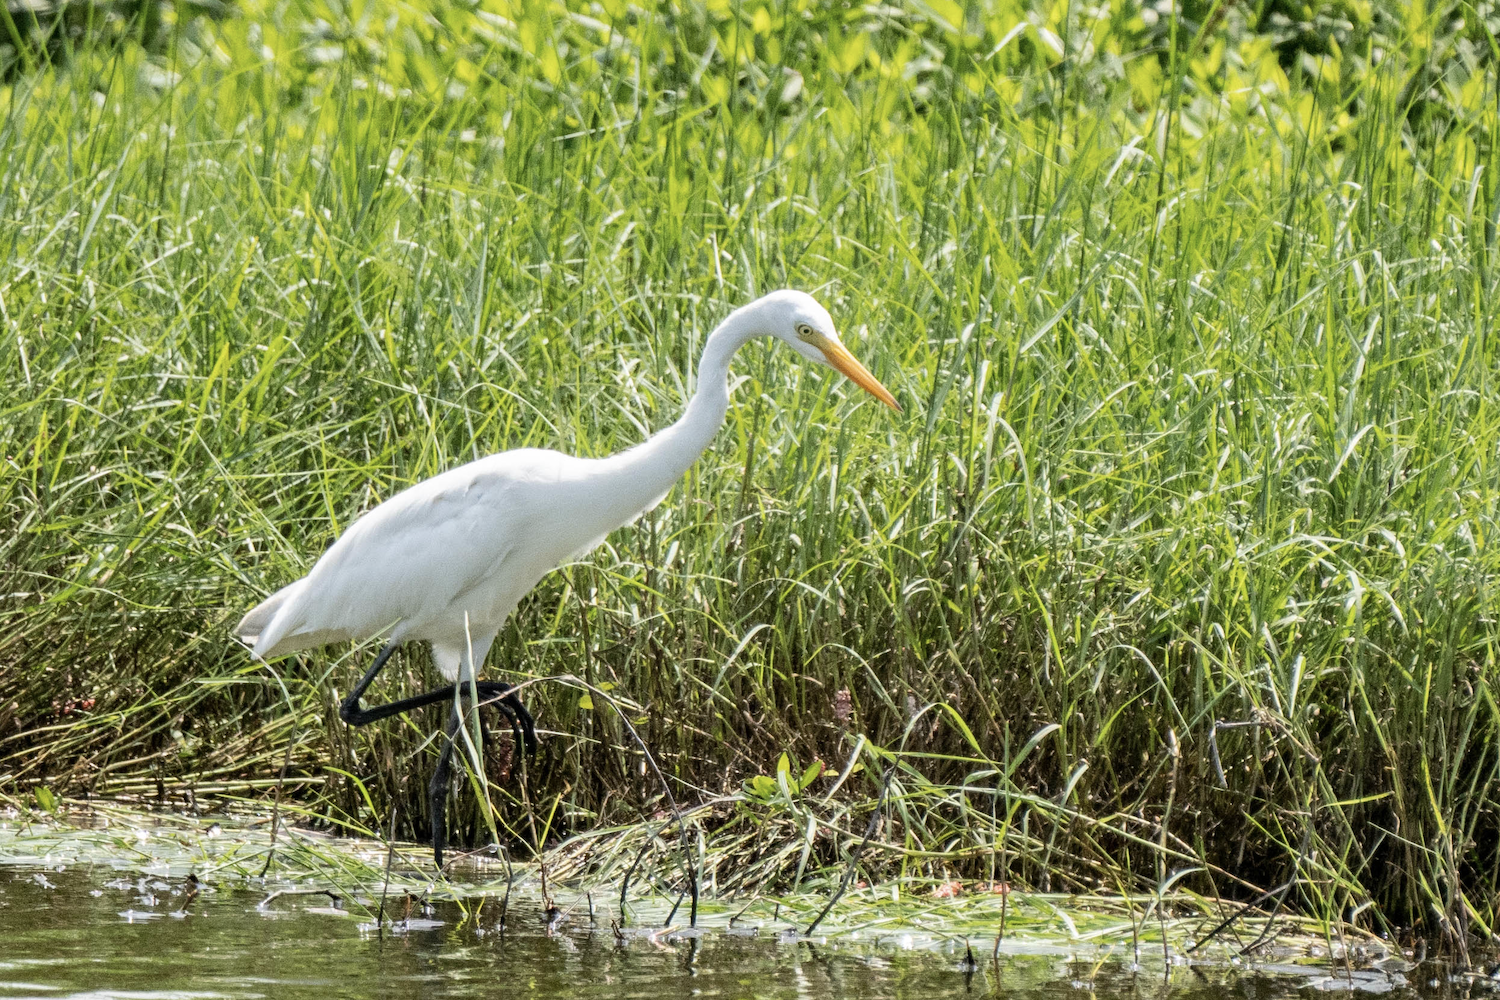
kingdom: Animalia
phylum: Chordata
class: Aves
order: Pelecaniformes
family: Ardeidae
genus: Egretta
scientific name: Egretta intermedia
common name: Intermediate egret
